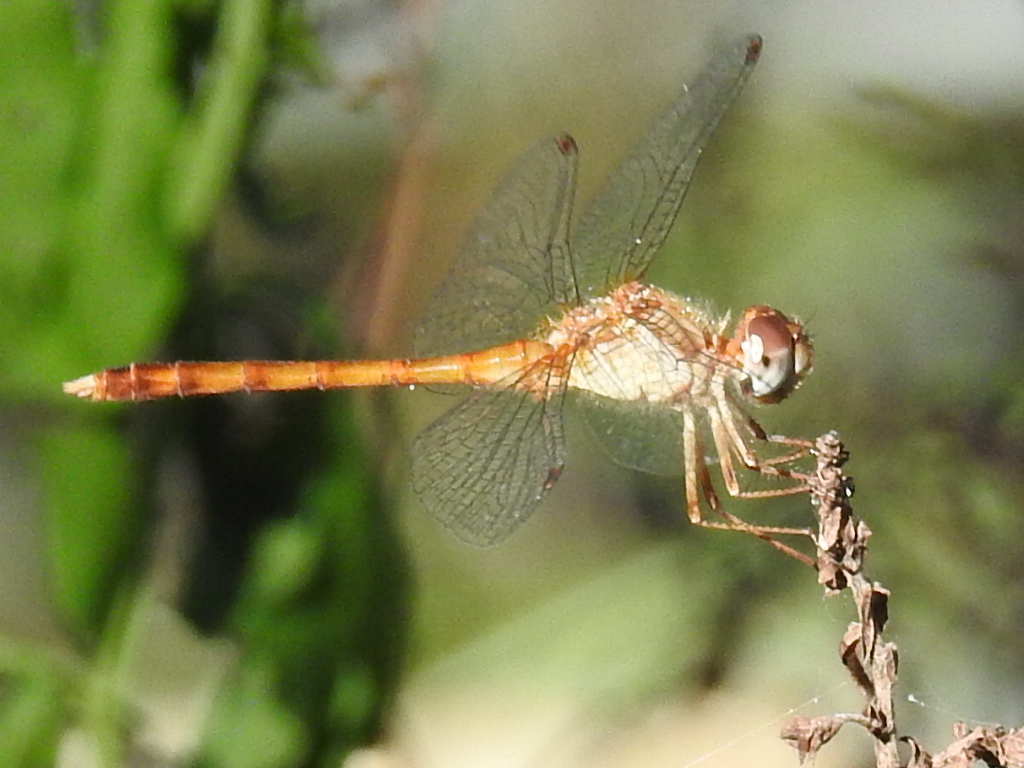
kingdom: Animalia
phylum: Arthropoda
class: Insecta
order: Odonata
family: Libellulidae
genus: Sympetrum
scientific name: Sympetrum vicinum
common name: Autumn meadowhawk
